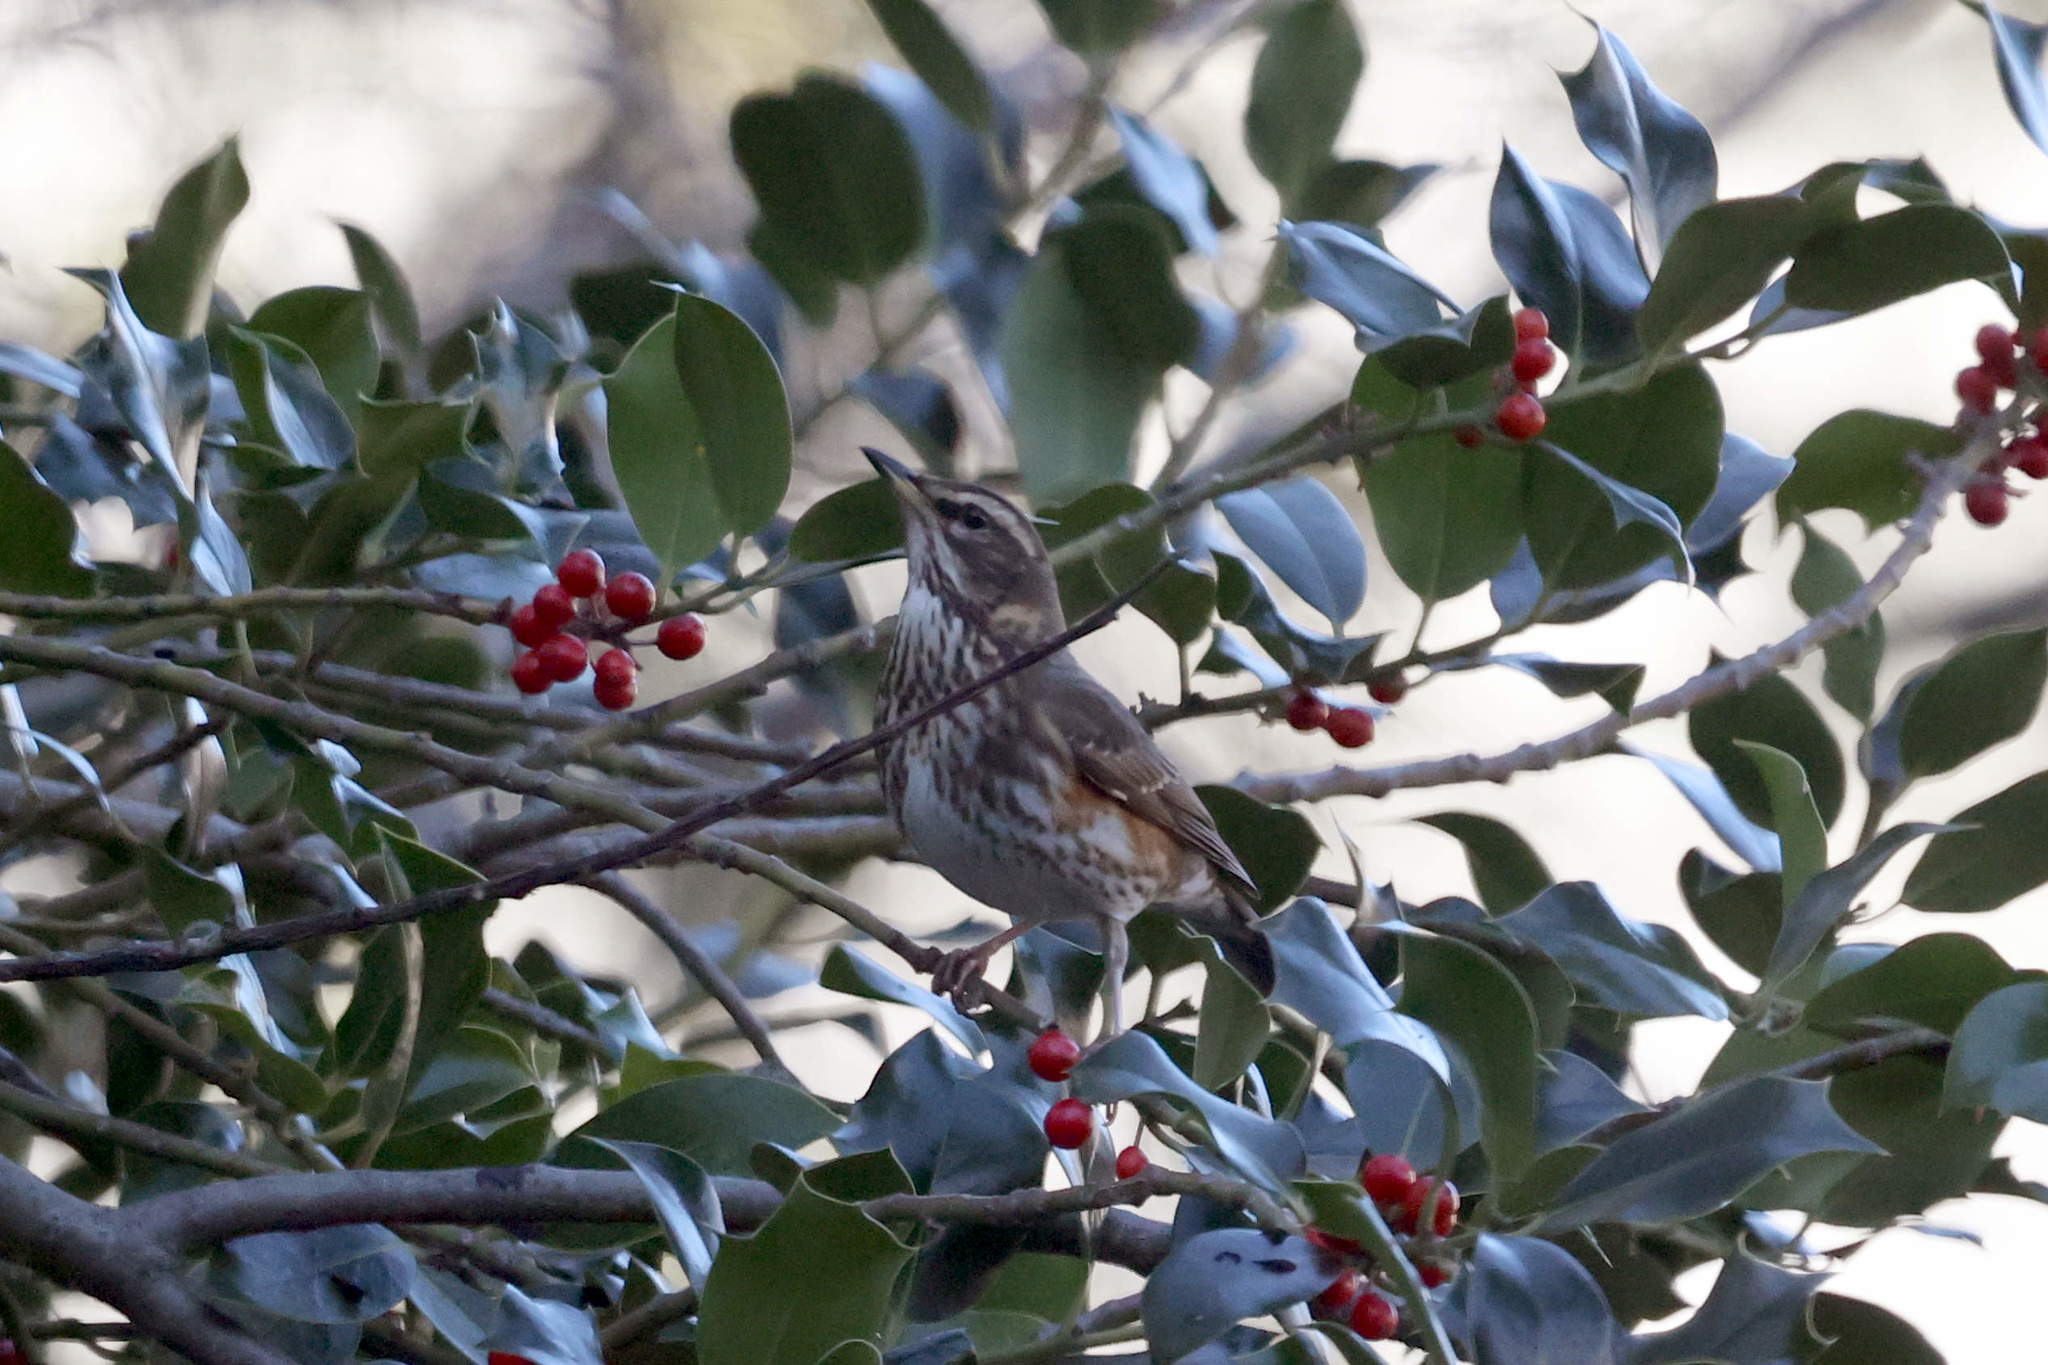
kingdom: Animalia
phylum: Chordata
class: Aves
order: Passeriformes
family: Turdidae
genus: Turdus
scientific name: Turdus iliacus
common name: Redwing
